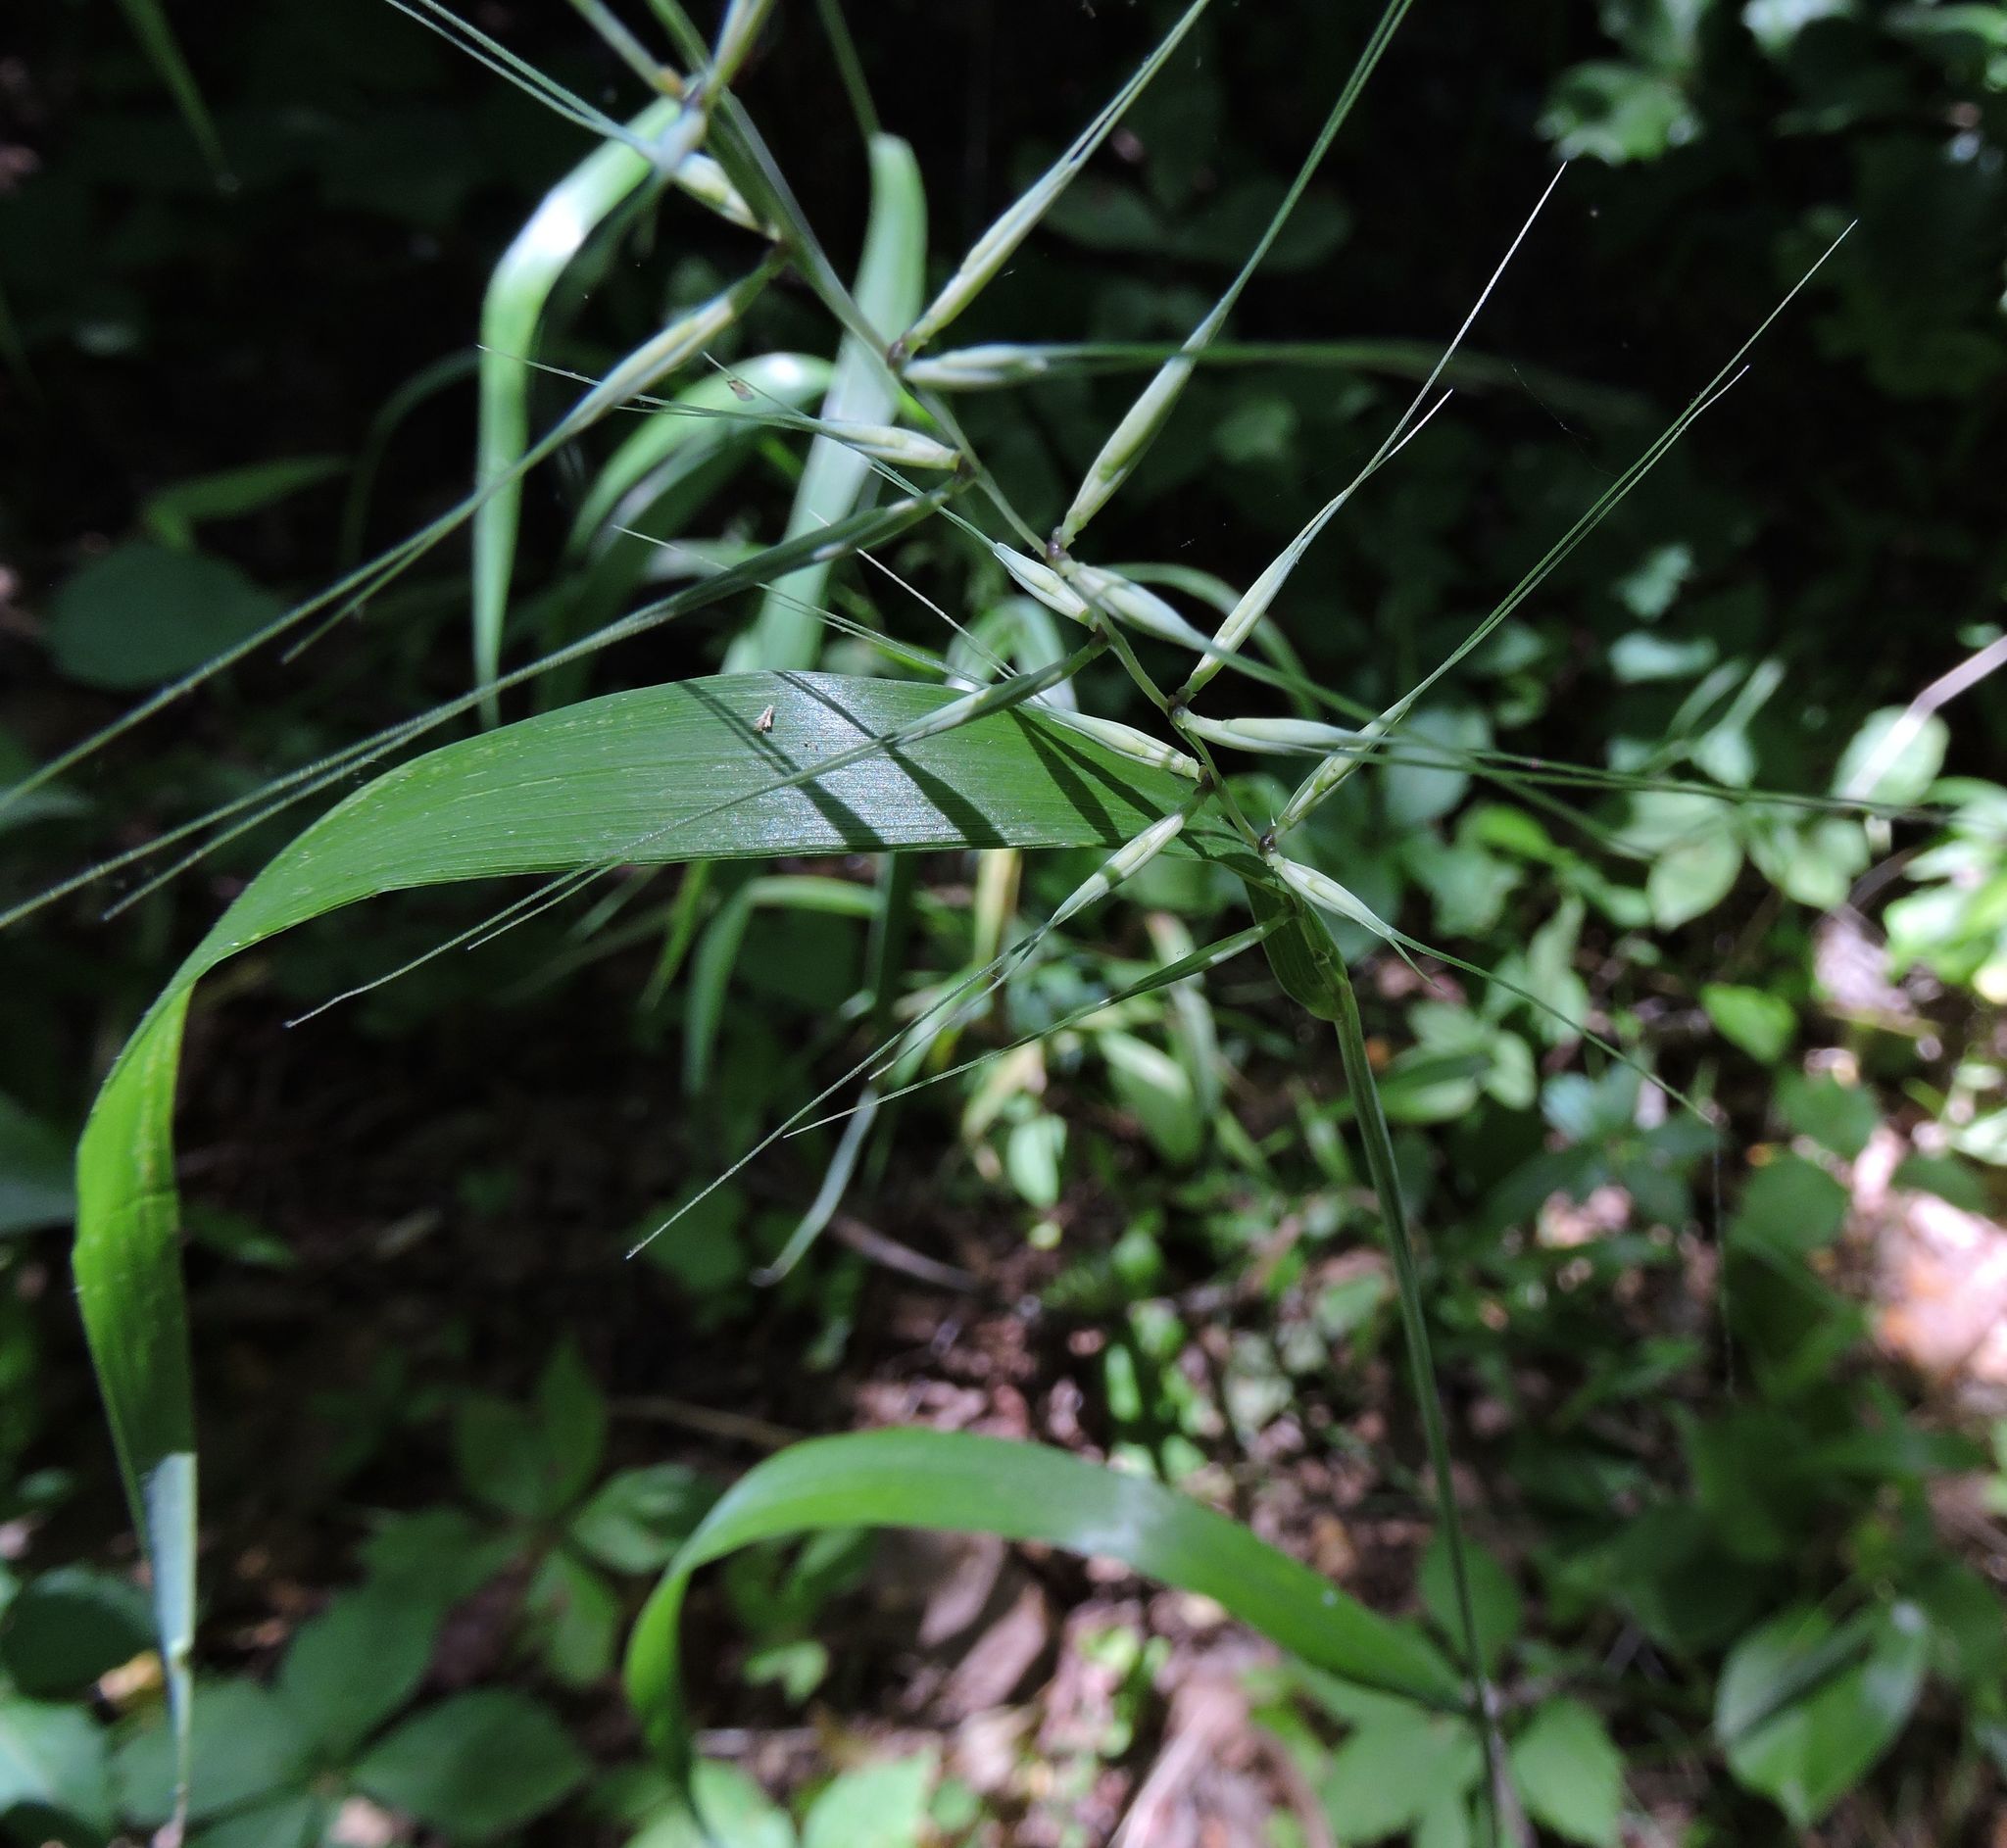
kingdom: Plantae
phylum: Tracheophyta
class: Liliopsida
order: Poales
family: Poaceae
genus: Elymus
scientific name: Elymus hystrix
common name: Bottlebrush grass
